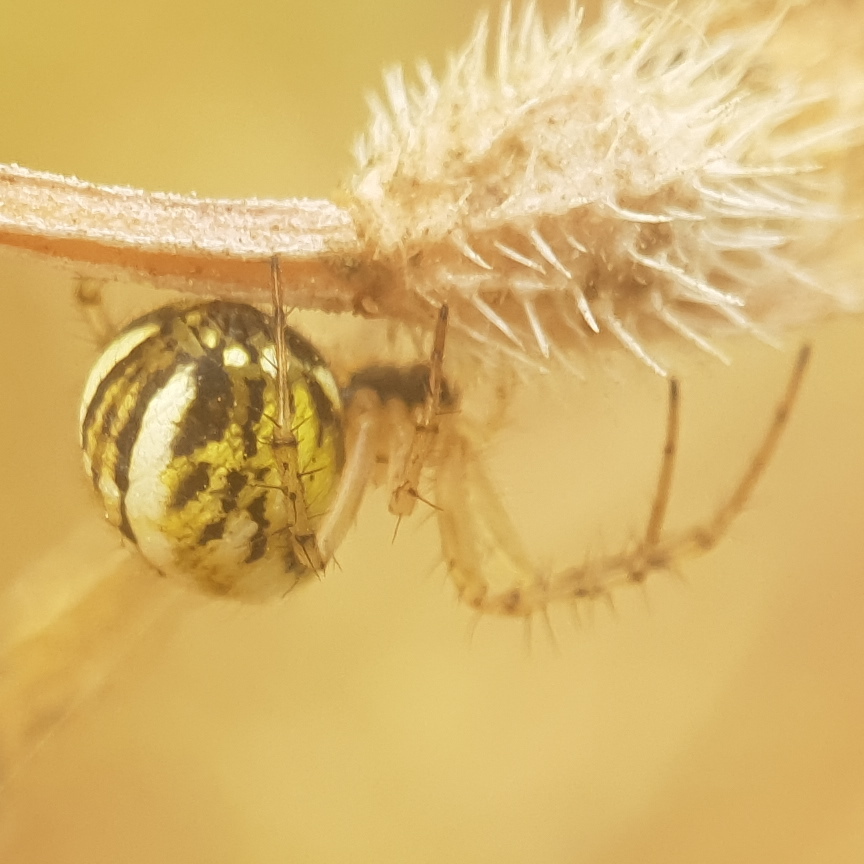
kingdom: Animalia
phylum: Arthropoda
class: Arachnida
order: Araneae
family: Araneidae
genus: Mangora
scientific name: Mangora acalypha
